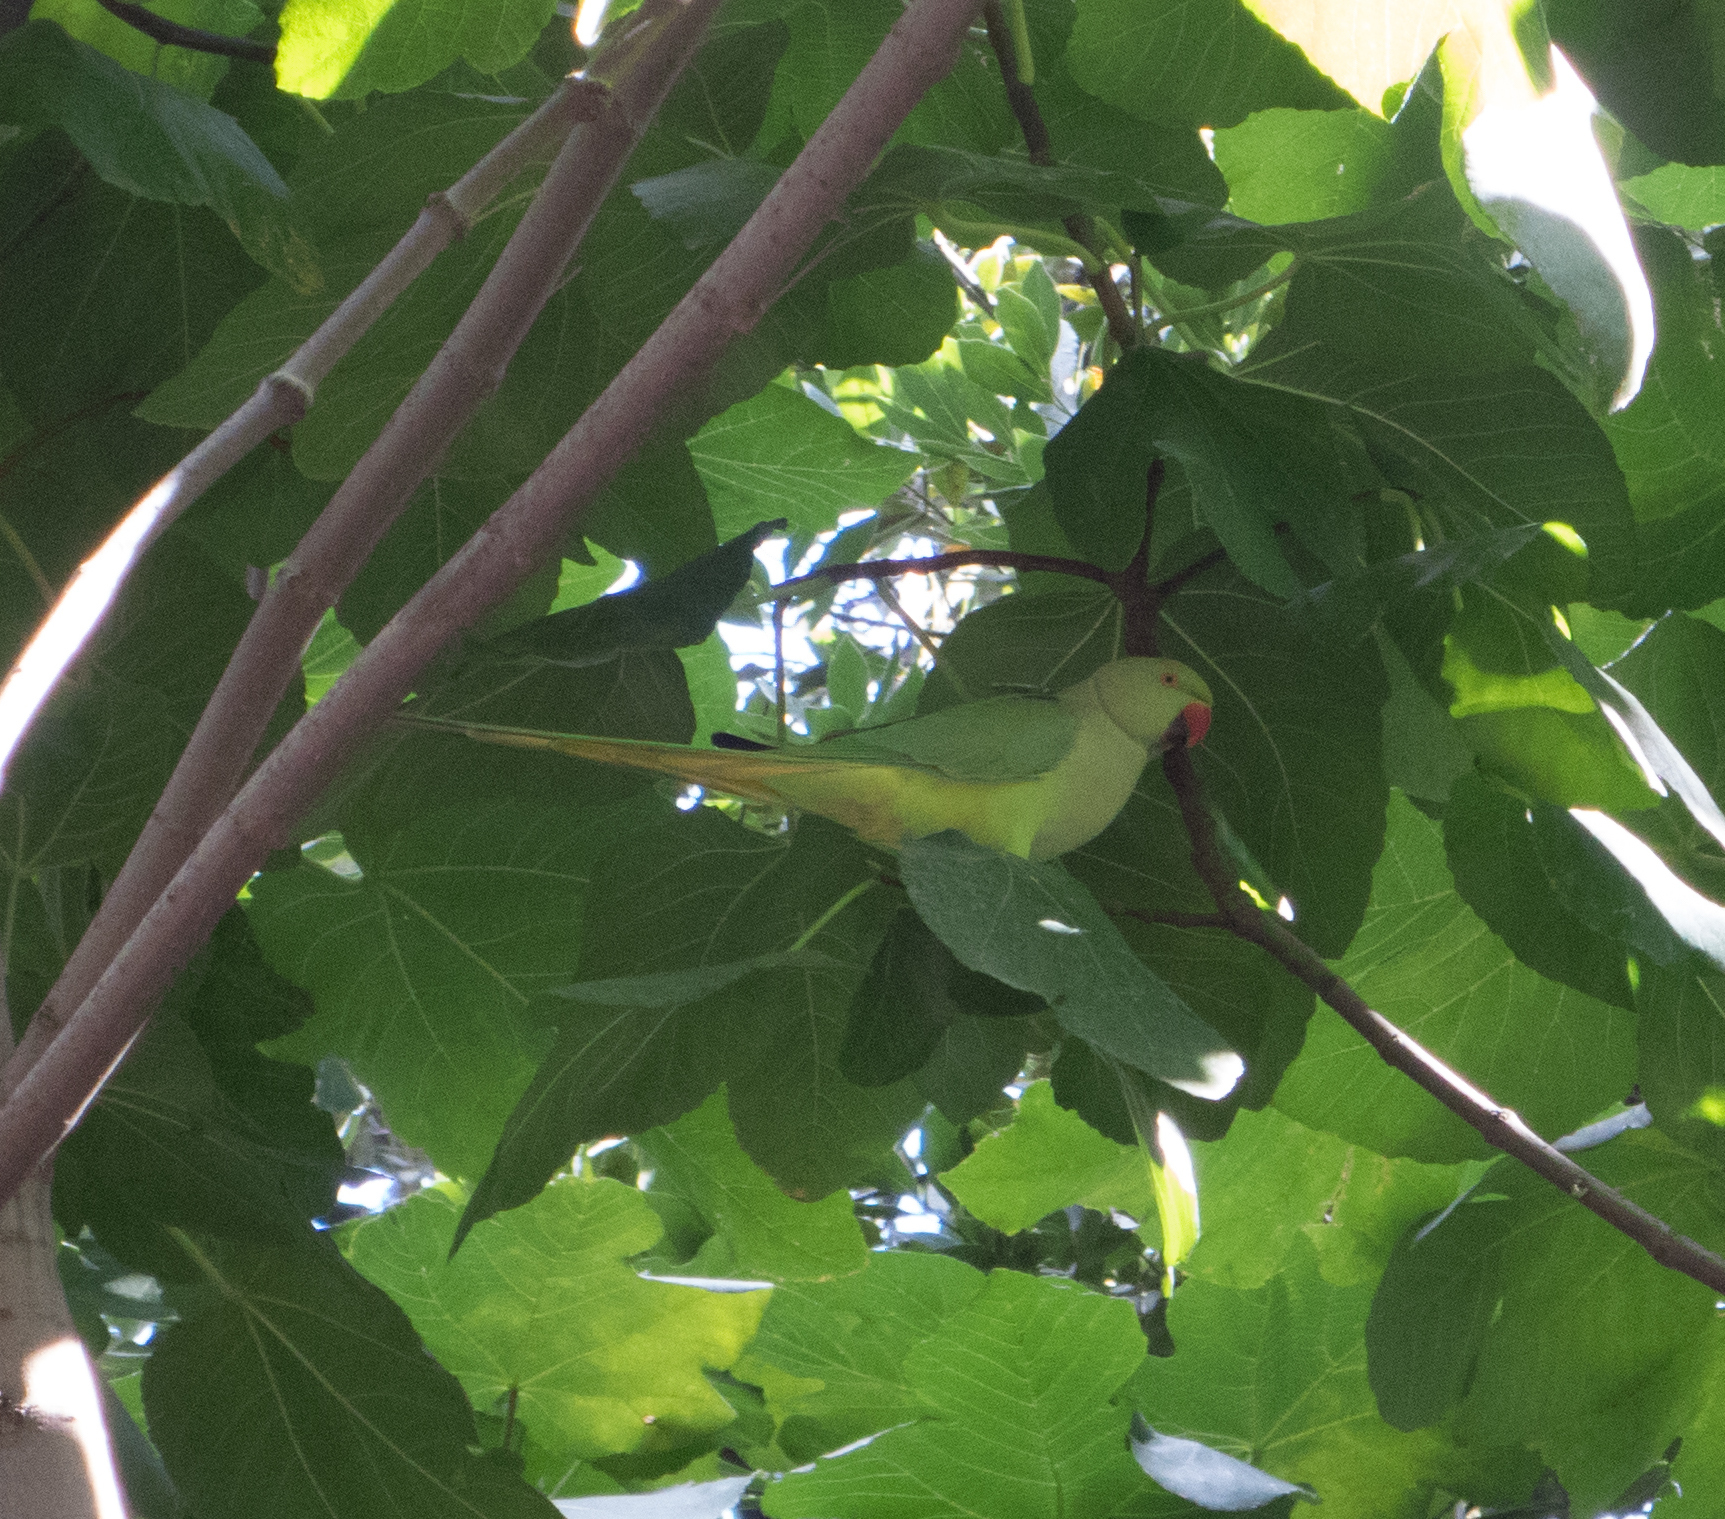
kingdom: Animalia
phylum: Chordata
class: Aves
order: Psittaciformes
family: Psittacidae
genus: Psittacula
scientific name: Psittacula krameri
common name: Rose-ringed parakeet
